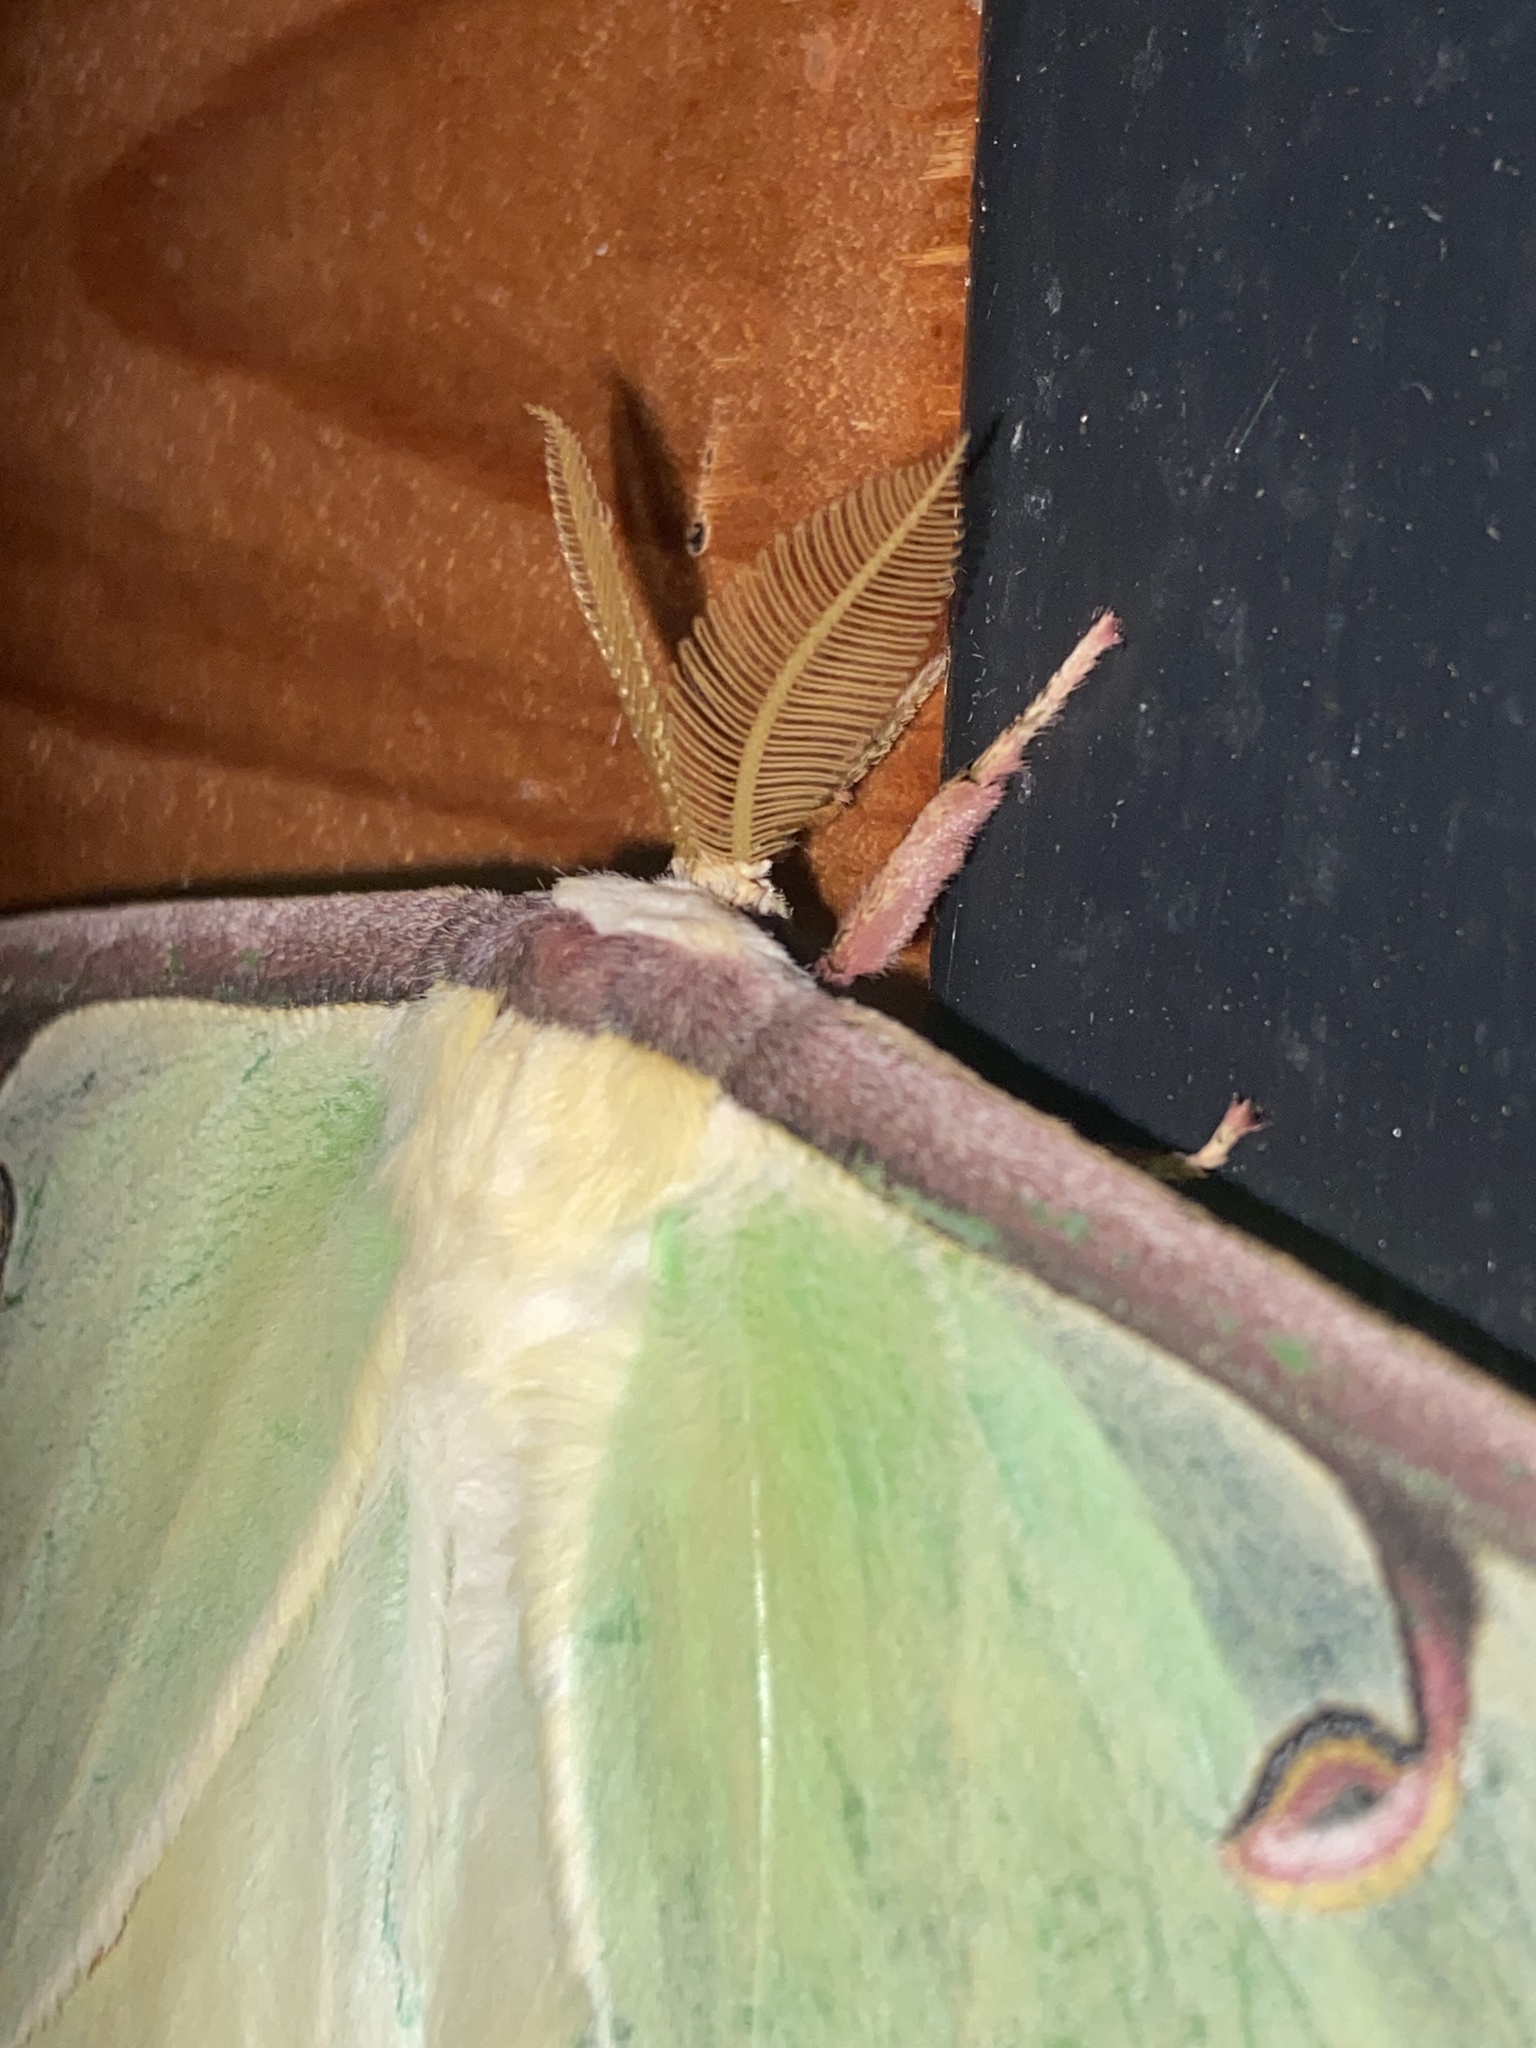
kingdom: Animalia
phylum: Arthropoda
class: Insecta
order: Lepidoptera
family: Saturniidae
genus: Actias
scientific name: Actias luna
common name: Luna moth
